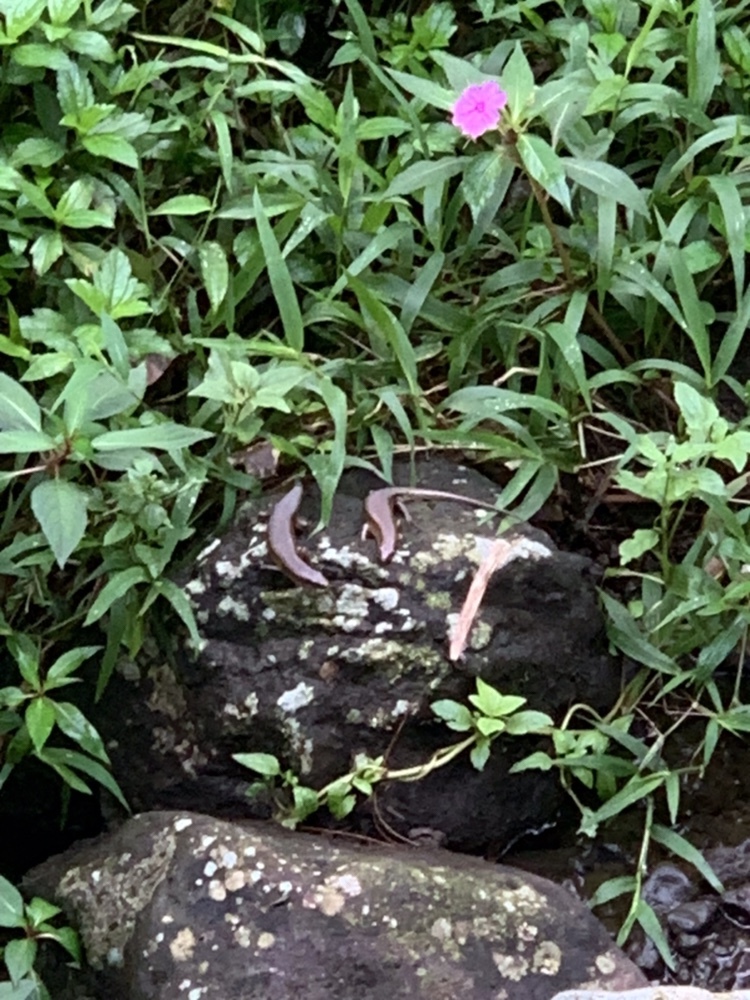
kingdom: Animalia
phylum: Chordata
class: Squamata
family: Scincidae
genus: Eutropis
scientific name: Eutropis multifasciata
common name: Common mabuya
